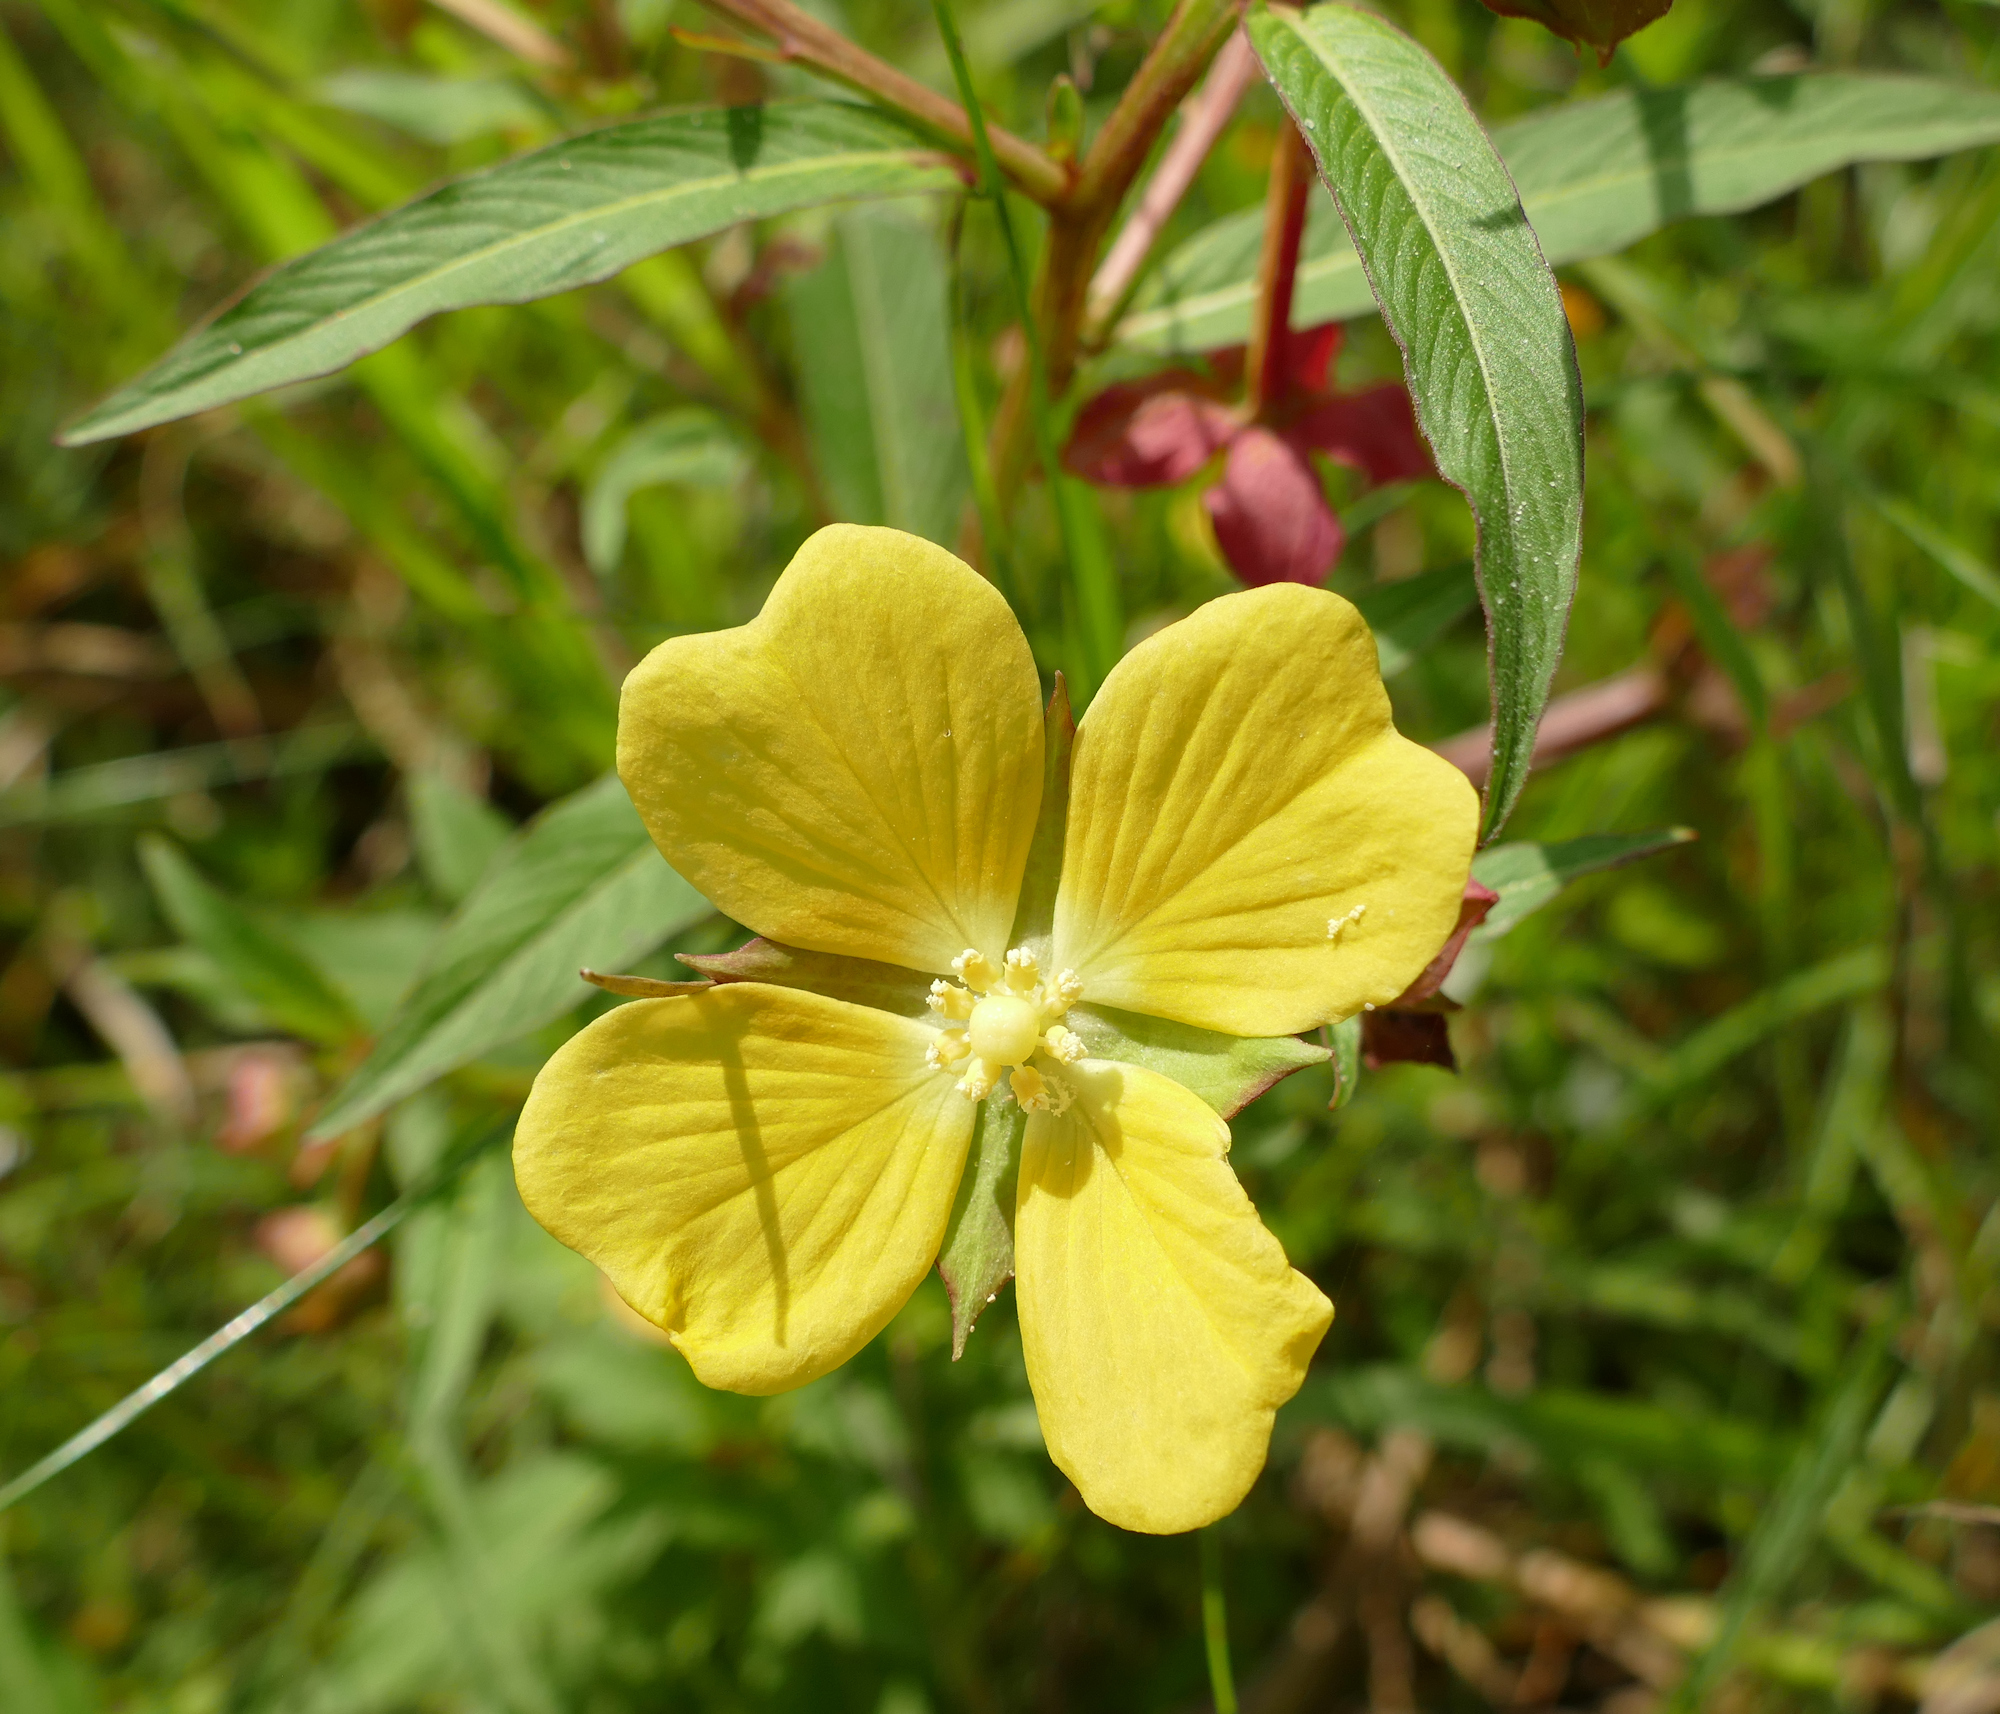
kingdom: Plantae
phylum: Tracheophyta
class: Magnoliopsida
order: Myrtales
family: Onagraceae
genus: Ludwigia
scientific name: Ludwigia octovalvis
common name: Water-primrose
